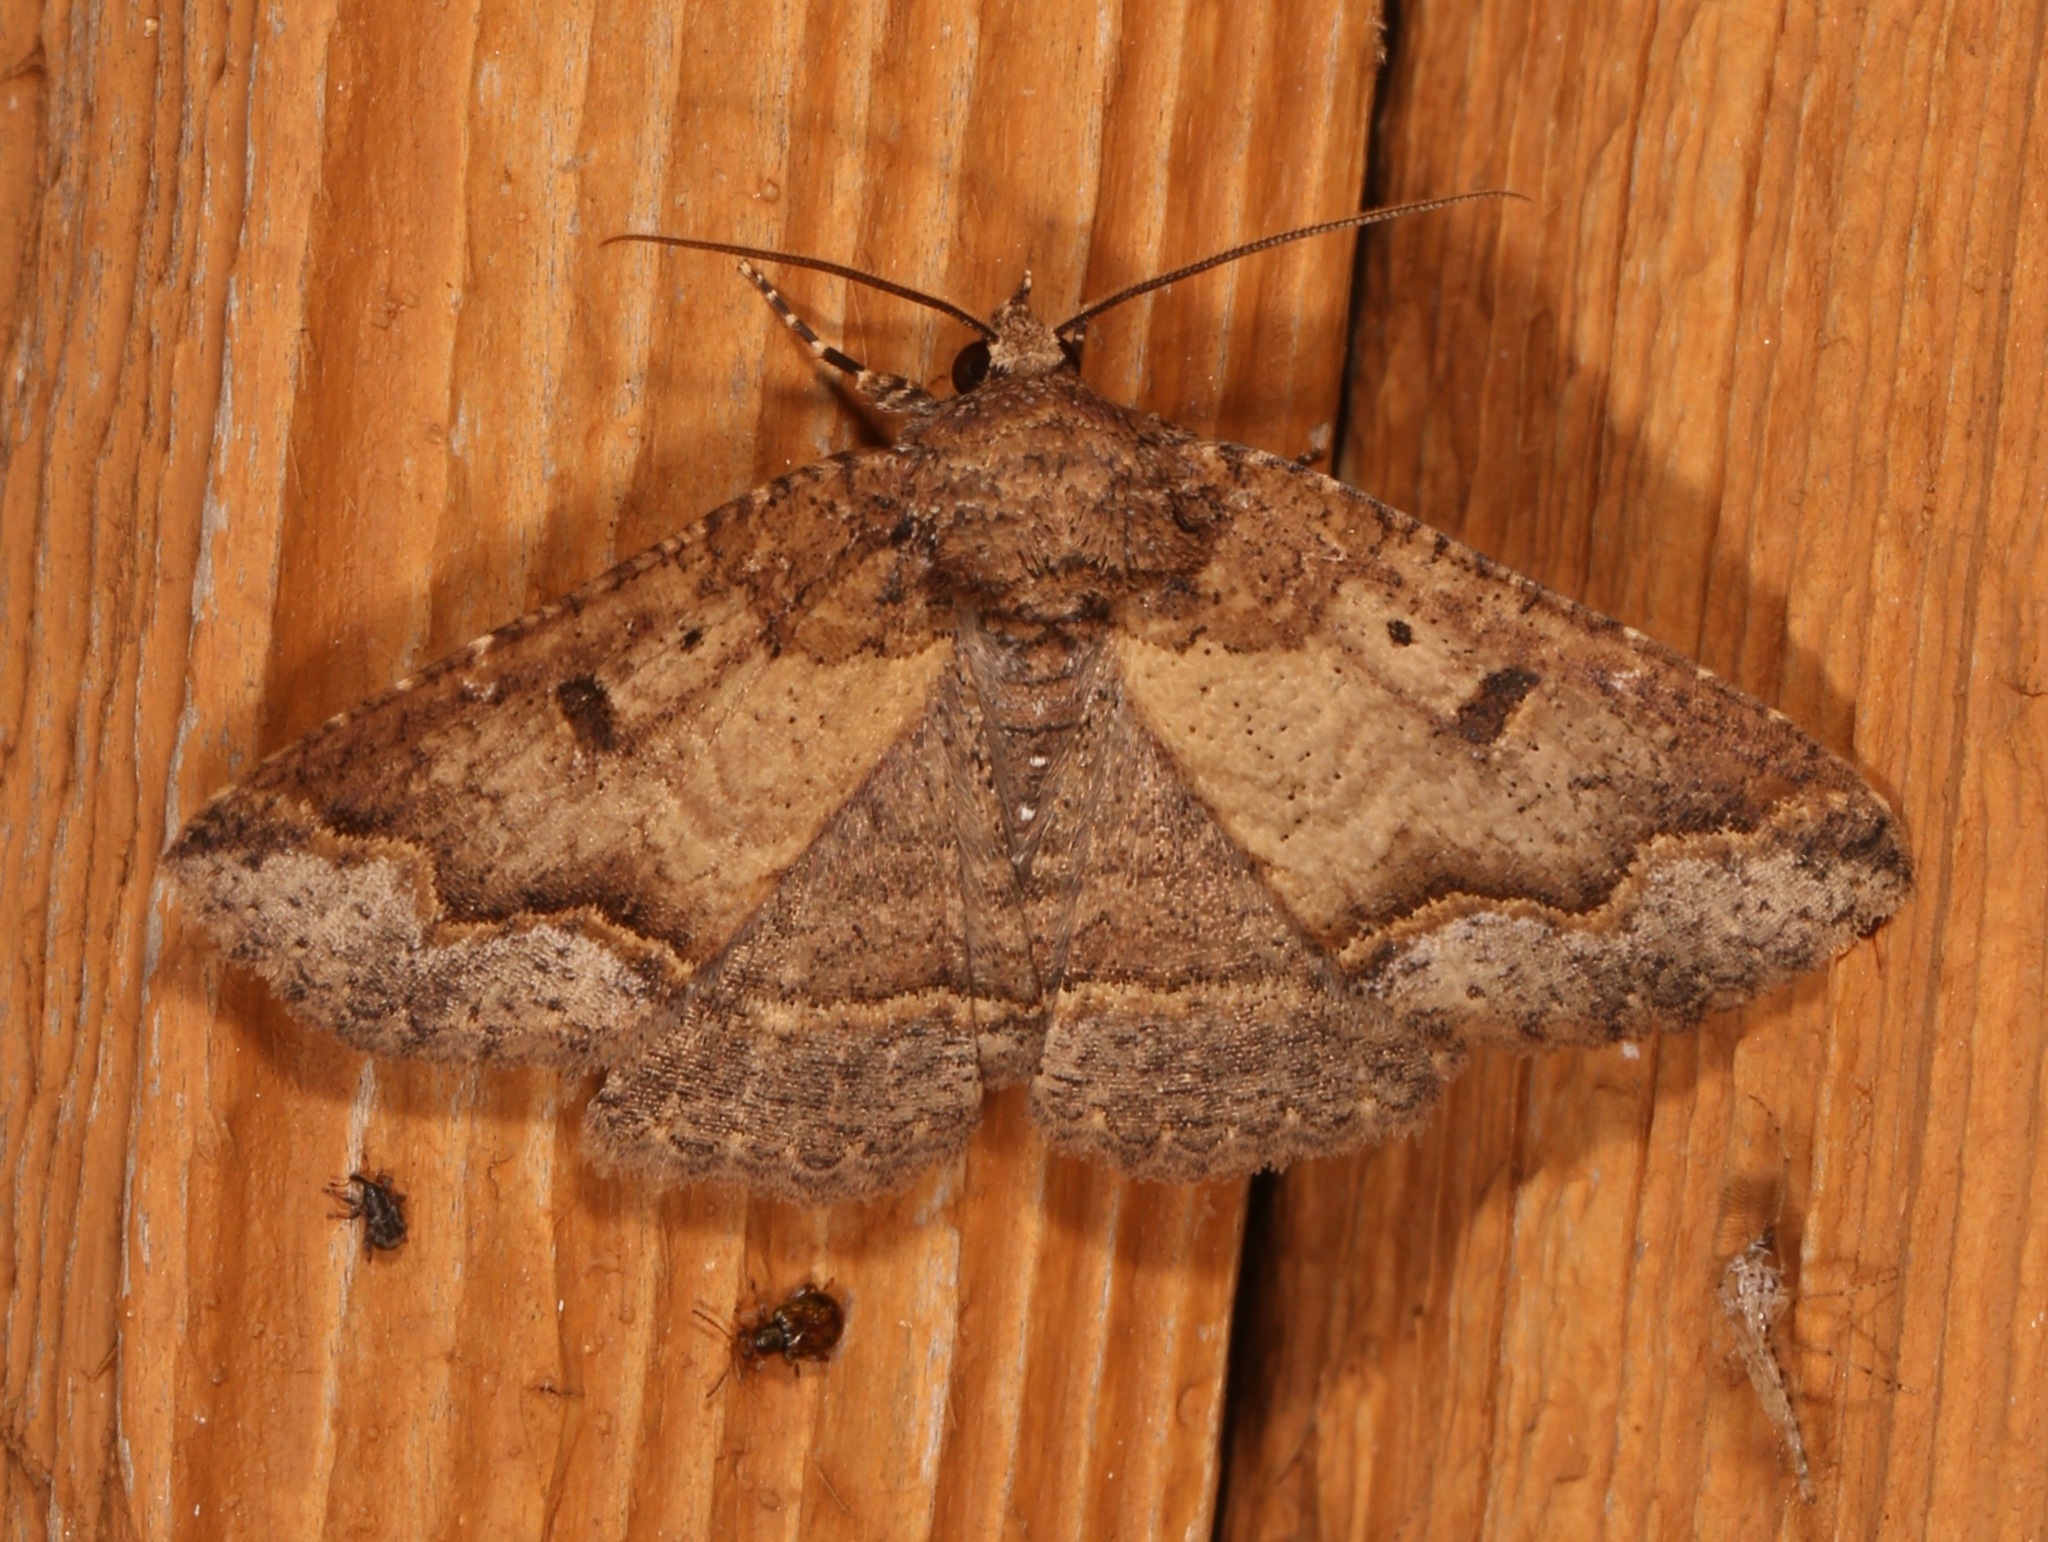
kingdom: Animalia
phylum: Arthropoda
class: Insecta
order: Lepidoptera
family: Erebidae
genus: Zale
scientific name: Zale declarans
